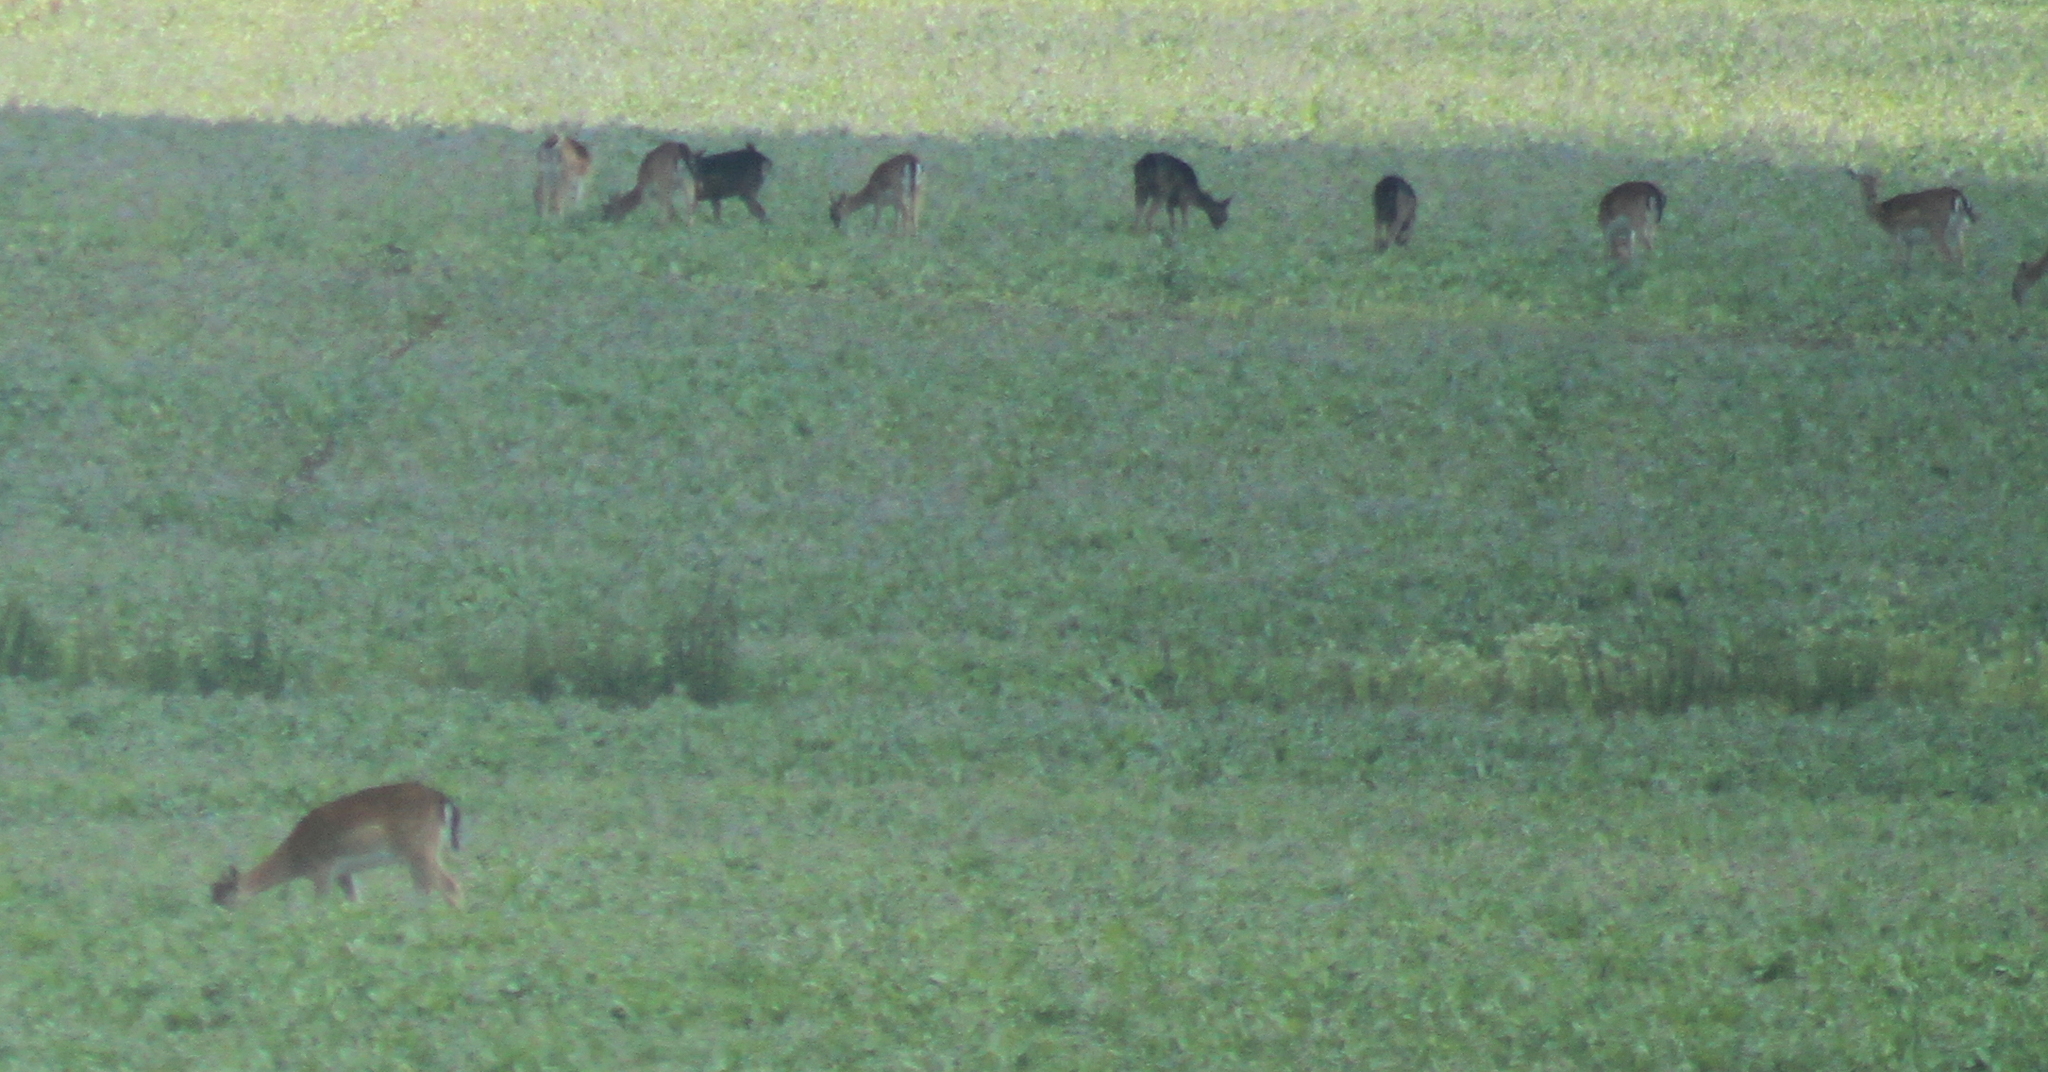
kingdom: Animalia
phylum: Chordata
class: Mammalia
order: Artiodactyla
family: Cervidae
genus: Dama
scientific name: Dama dama
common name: Fallow deer
